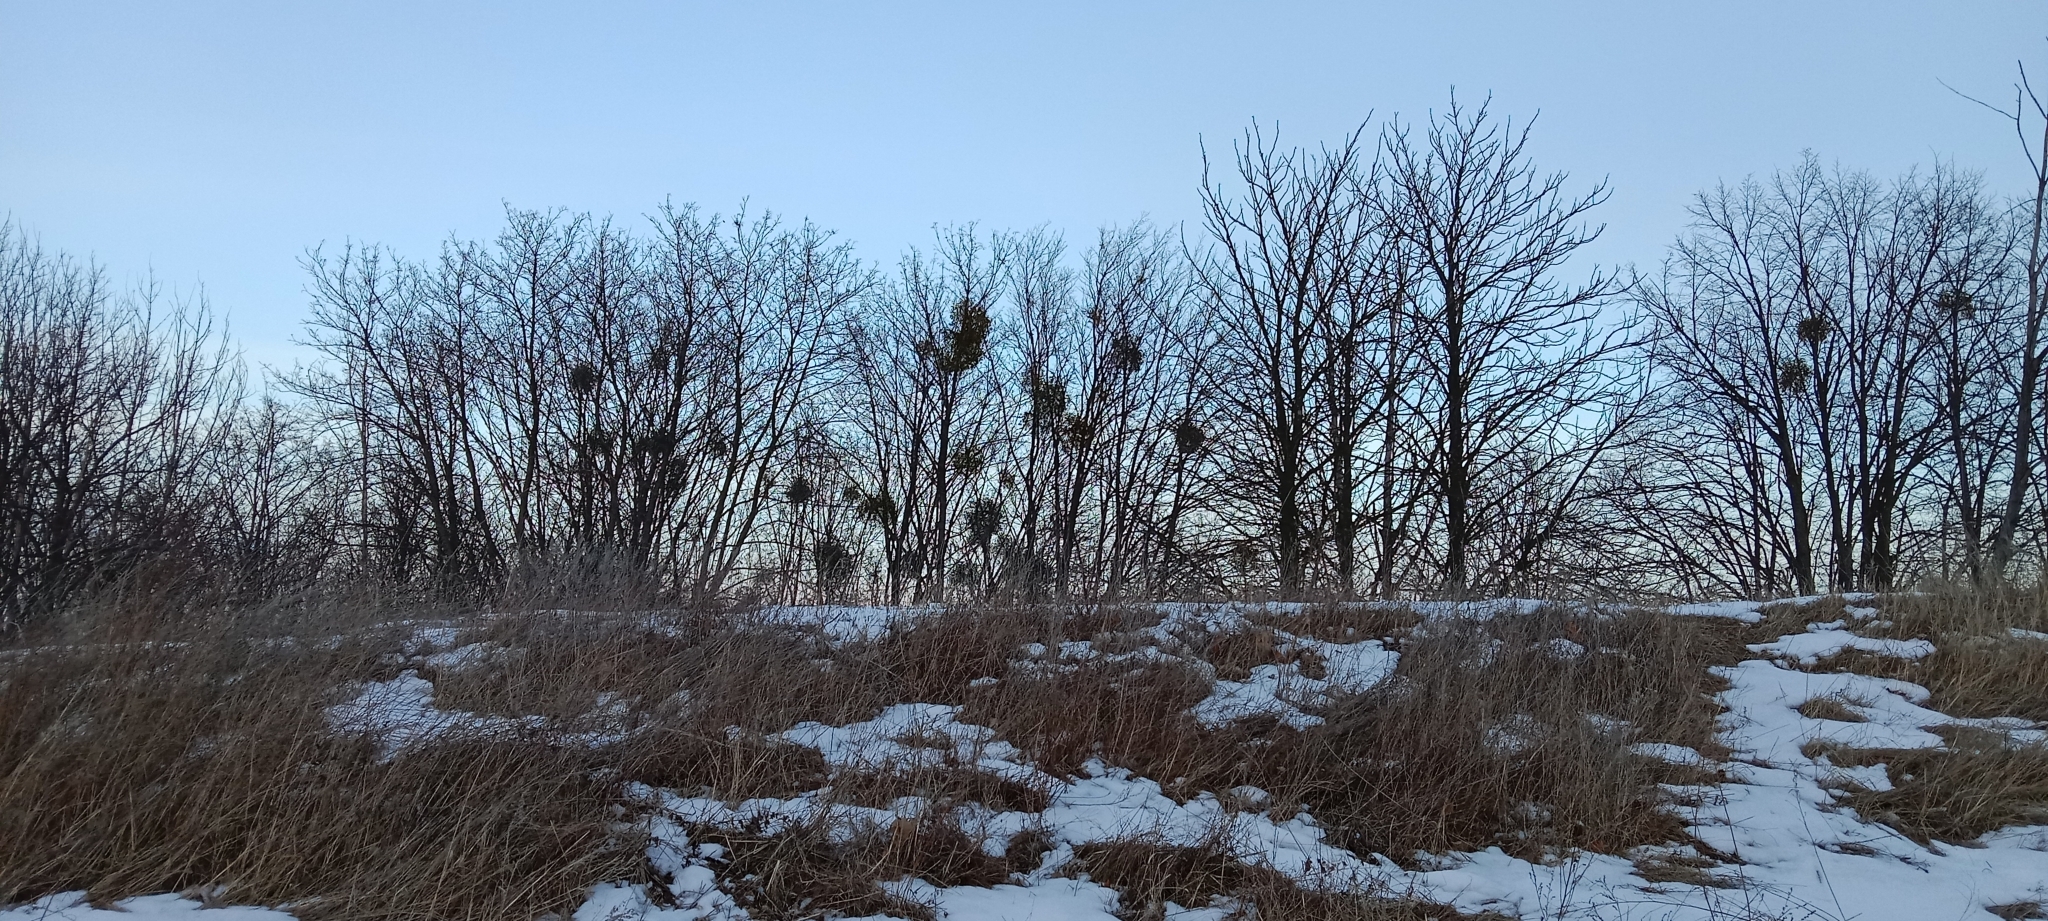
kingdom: Plantae
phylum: Tracheophyta
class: Magnoliopsida
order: Santalales
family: Viscaceae
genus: Viscum
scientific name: Viscum album
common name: Mistletoe
